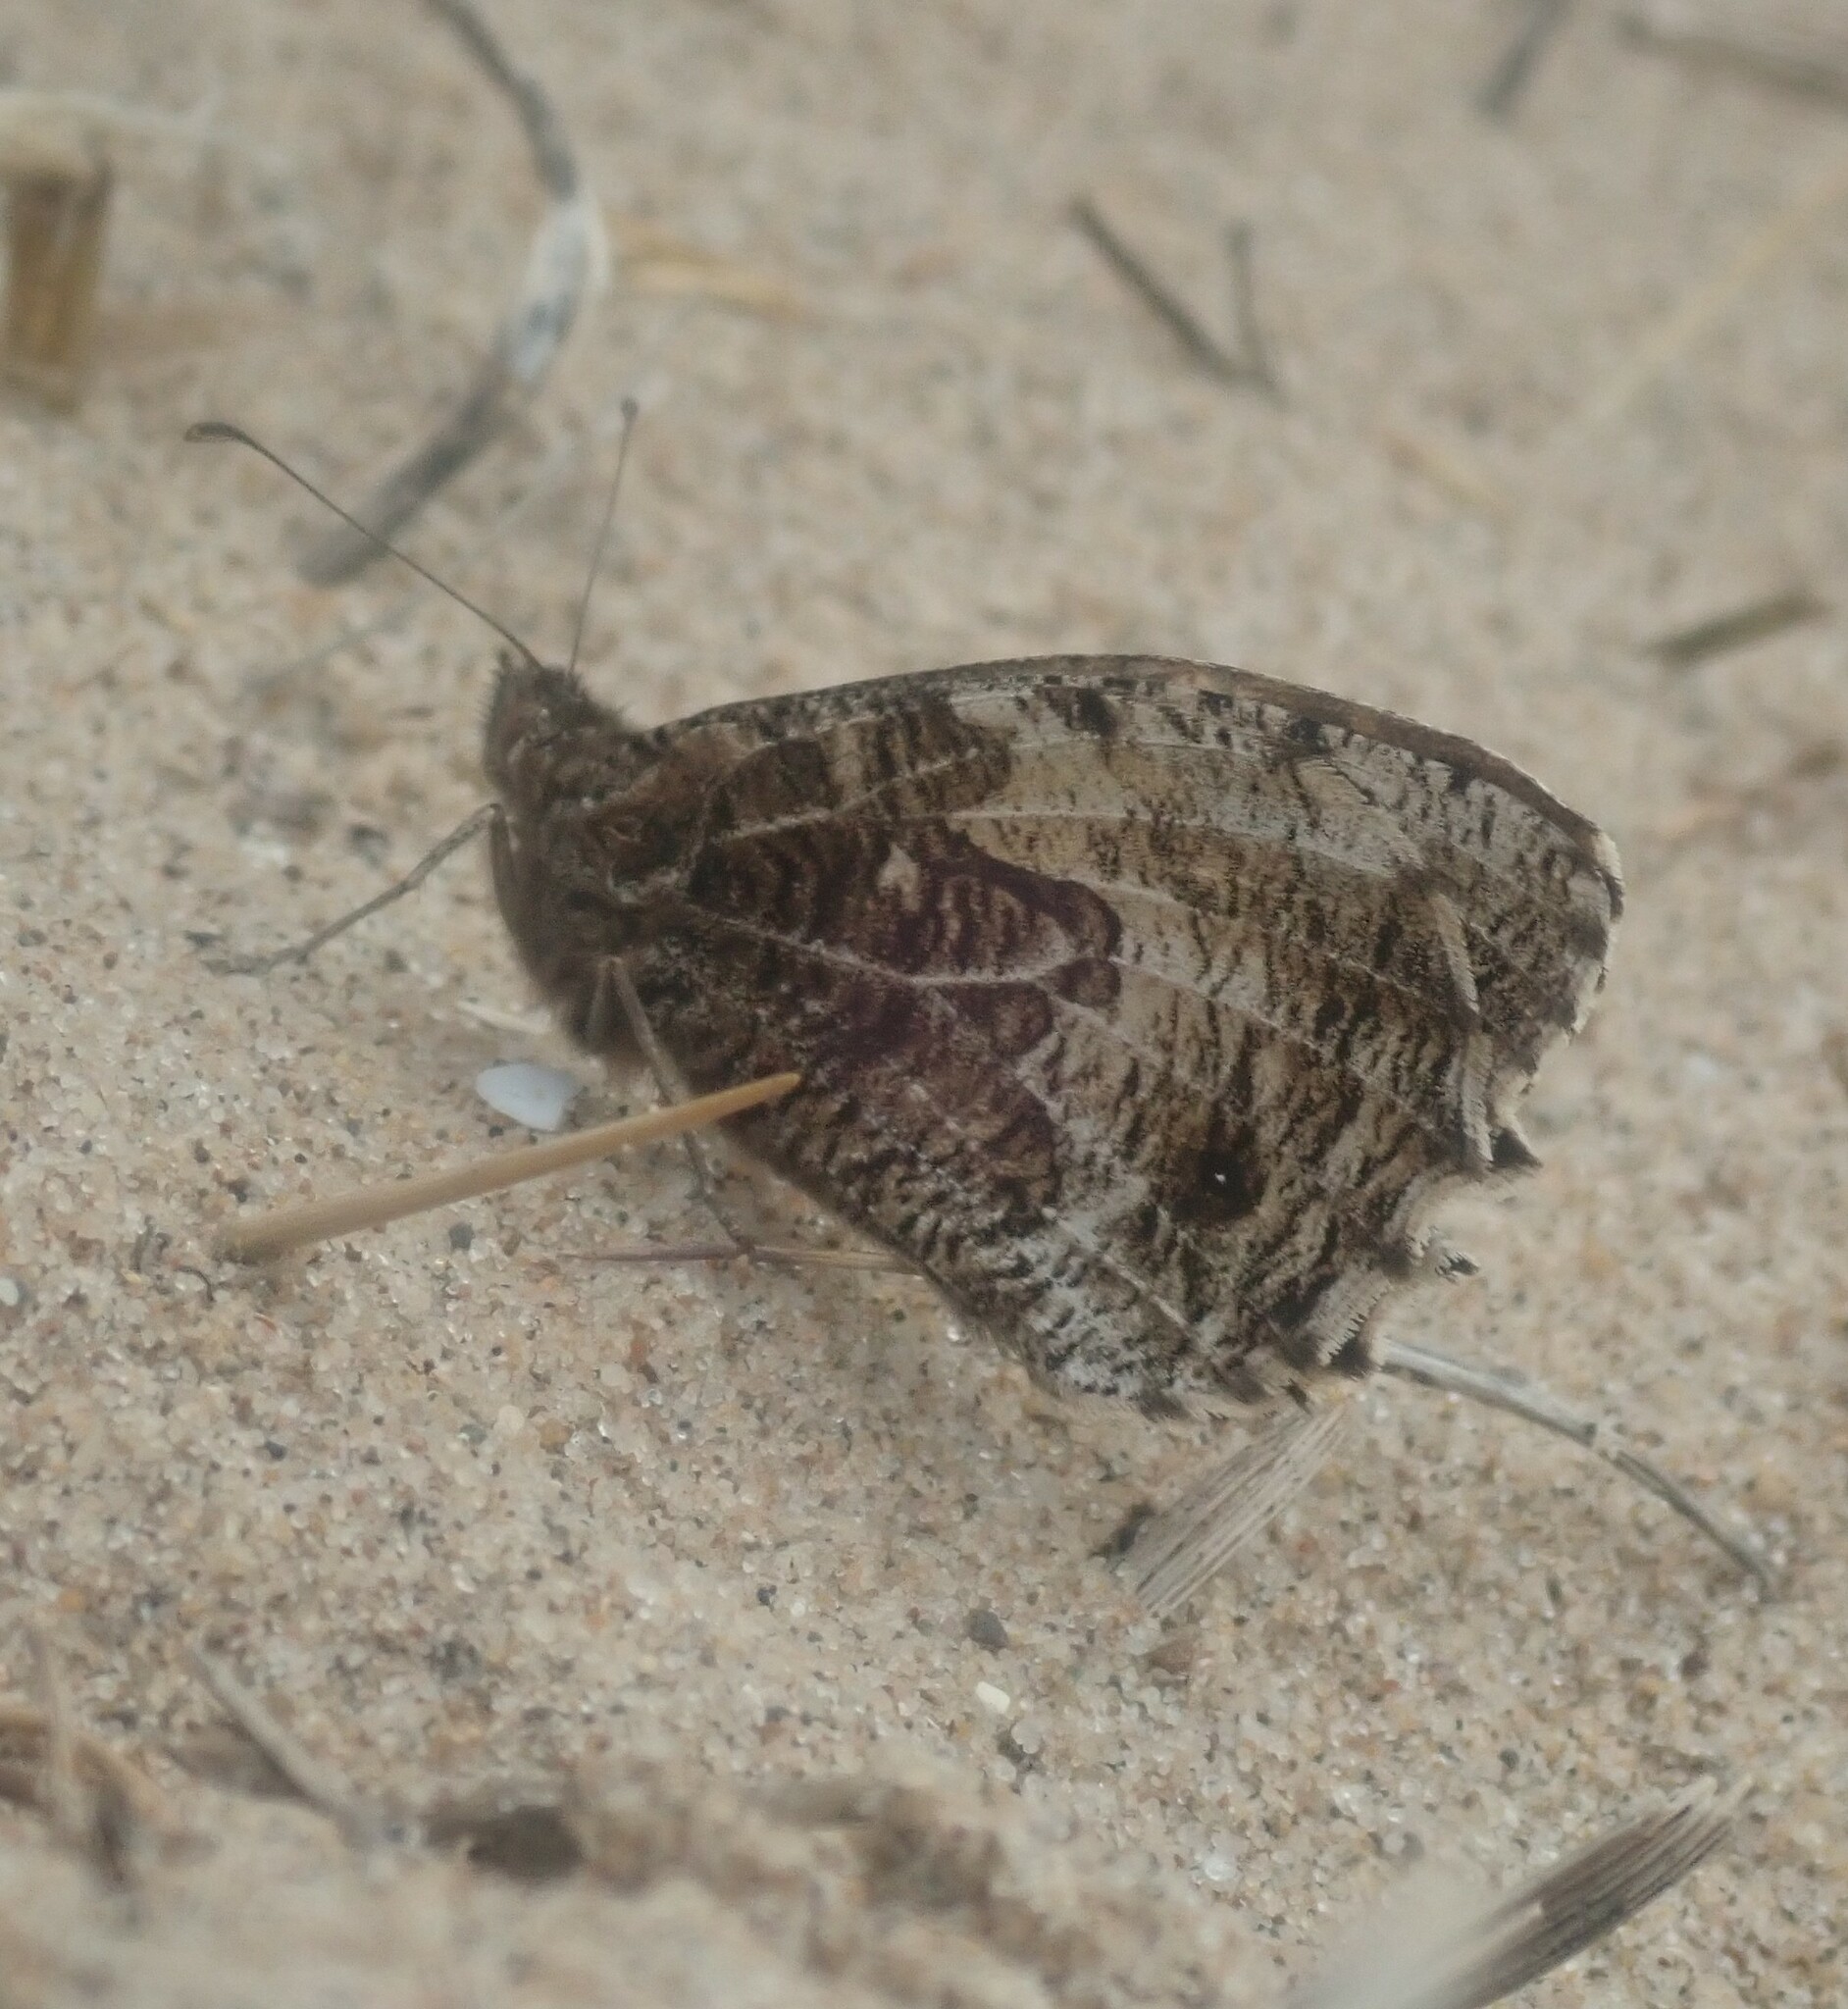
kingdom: Animalia
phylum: Arthropoda
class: Insecta
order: Lepidoptera
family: Nymphalidae
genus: Hipparchia
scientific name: Hipparchia semele
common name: Grayling
